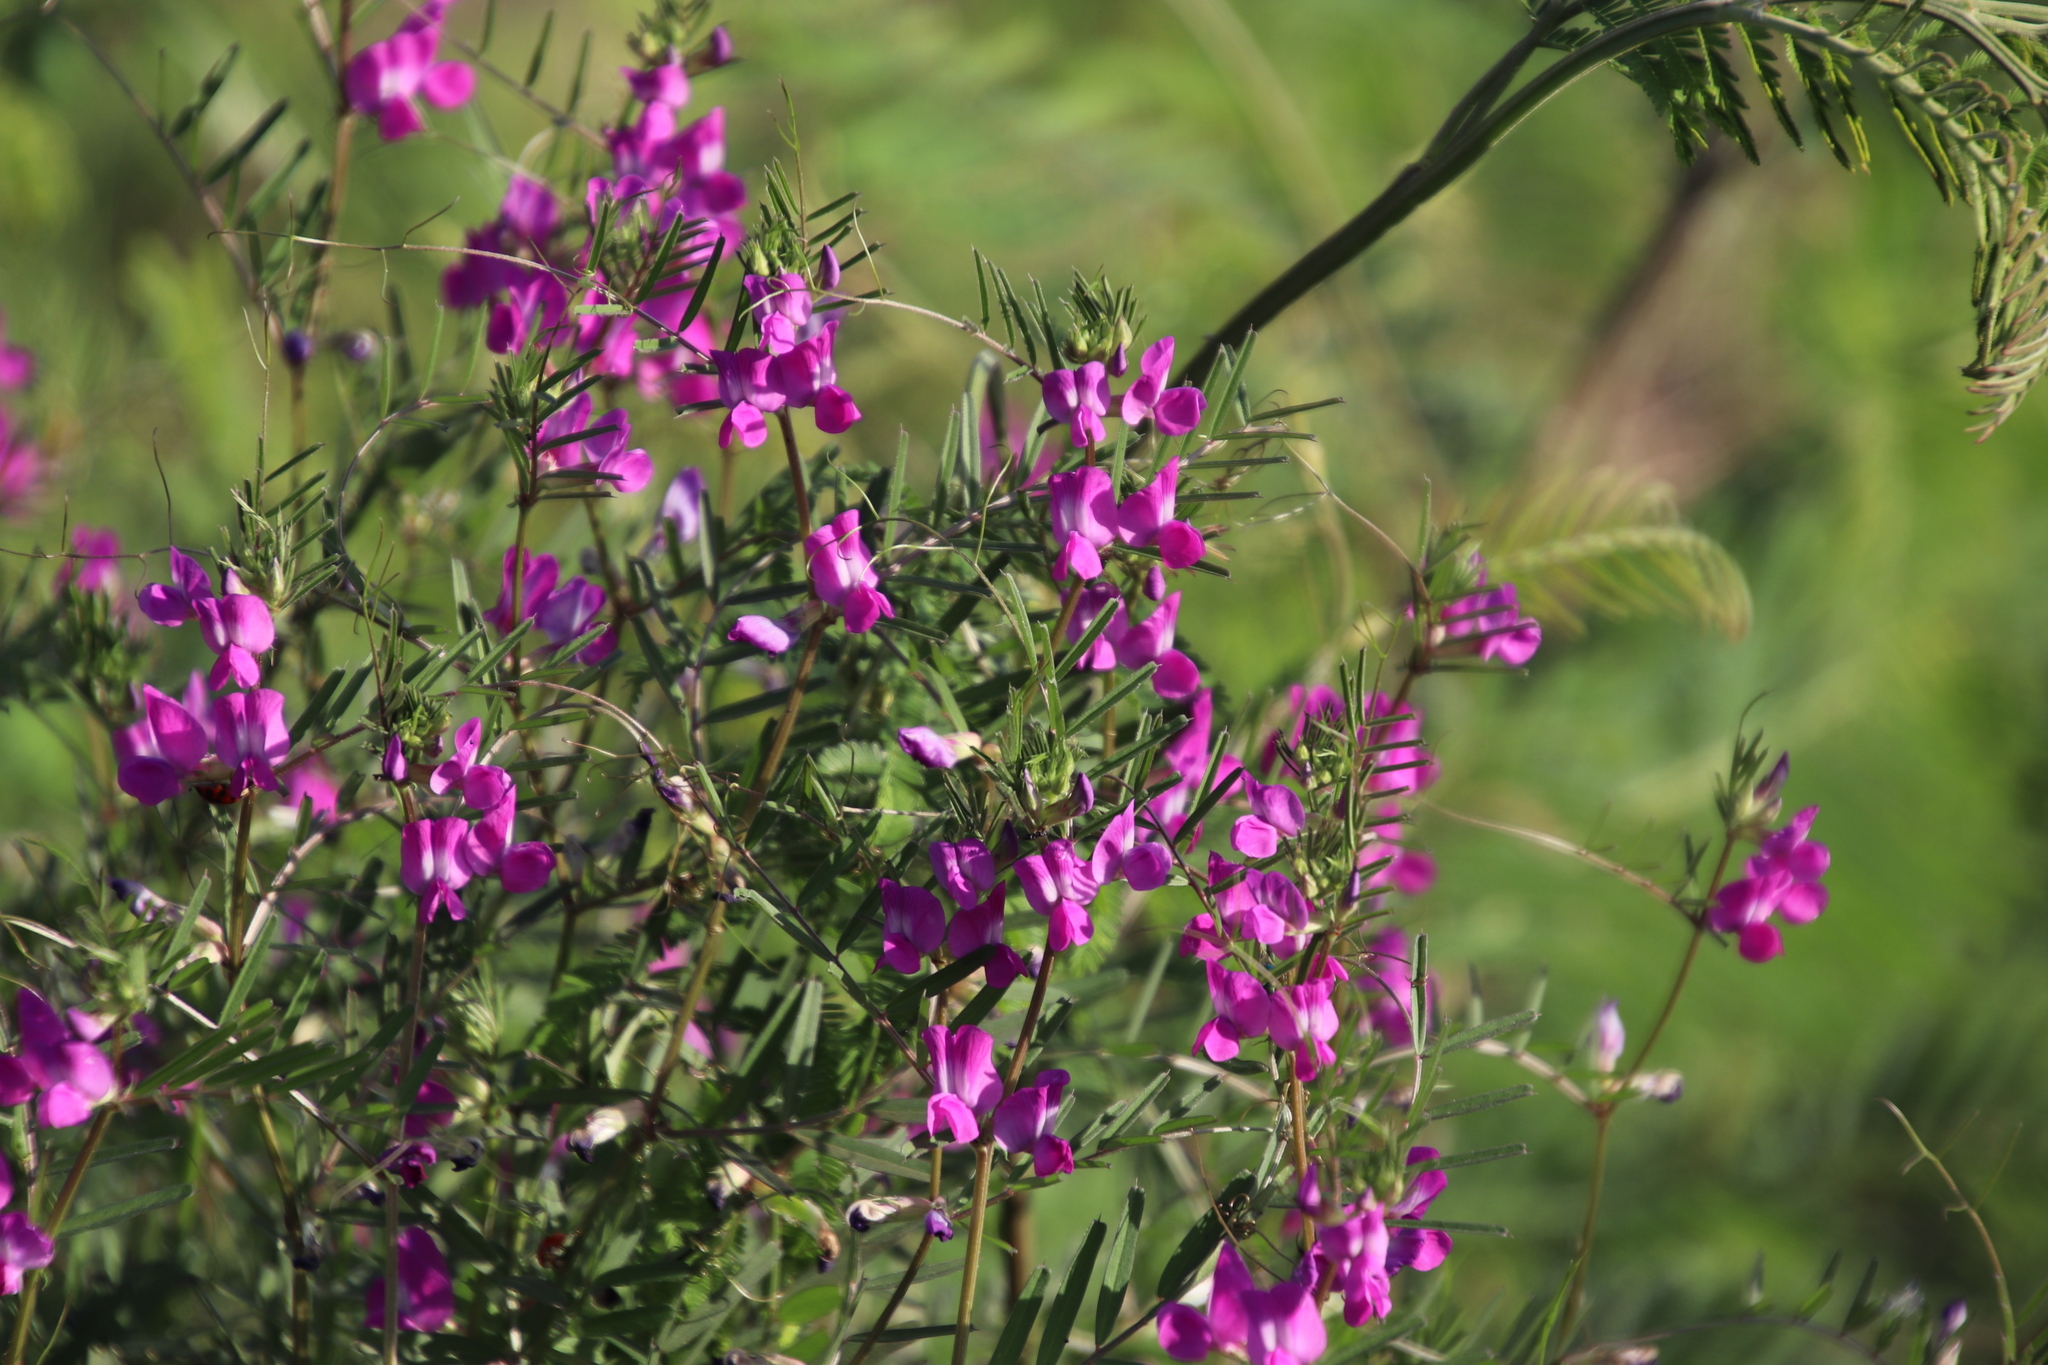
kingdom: Plantae
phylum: Tracheophyta
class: Magnoliopsida
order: Fabales
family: Fabaceae
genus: Vicia
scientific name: Vicia sativa
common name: Garden vetch
